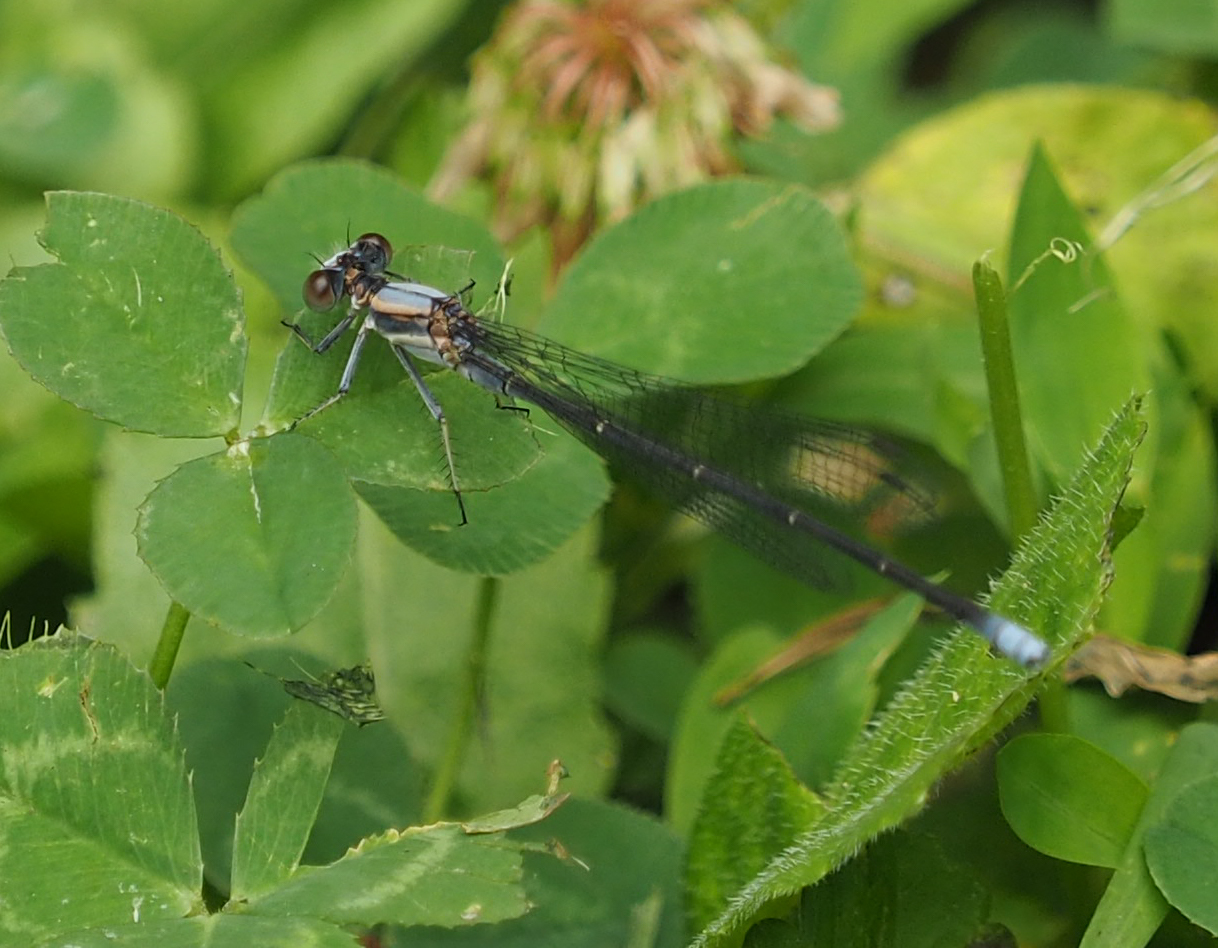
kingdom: Animalia
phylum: Arthropoda
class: Insecta
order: Odonata
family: Coenagrionidae
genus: Argia
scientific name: Argia moesta
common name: Powdered dancer
